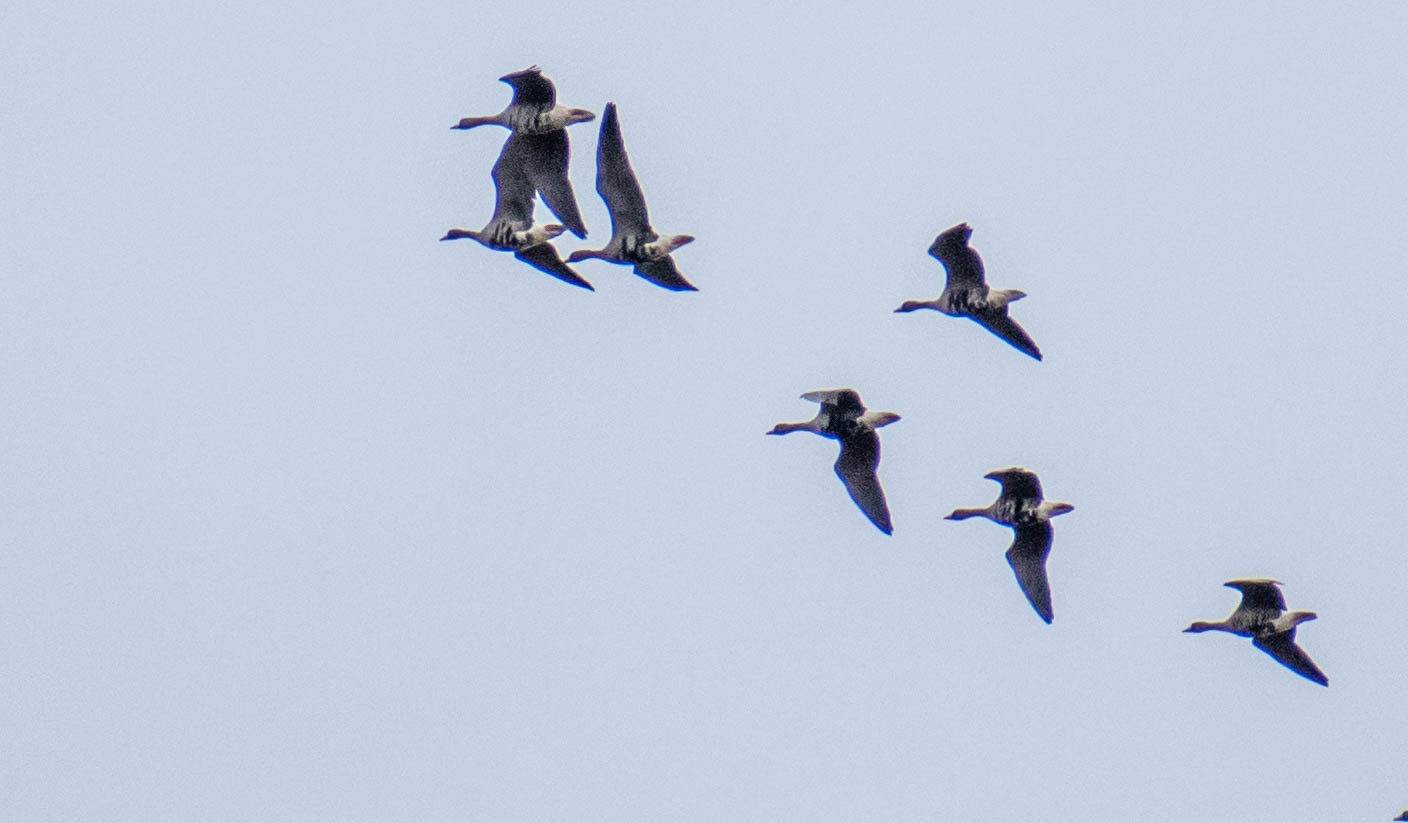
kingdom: Animalia
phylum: Chordata
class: Aves
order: Anseriformes
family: Anatidae
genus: Anser
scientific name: Anser albifrons
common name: Greater white-fronted goose
